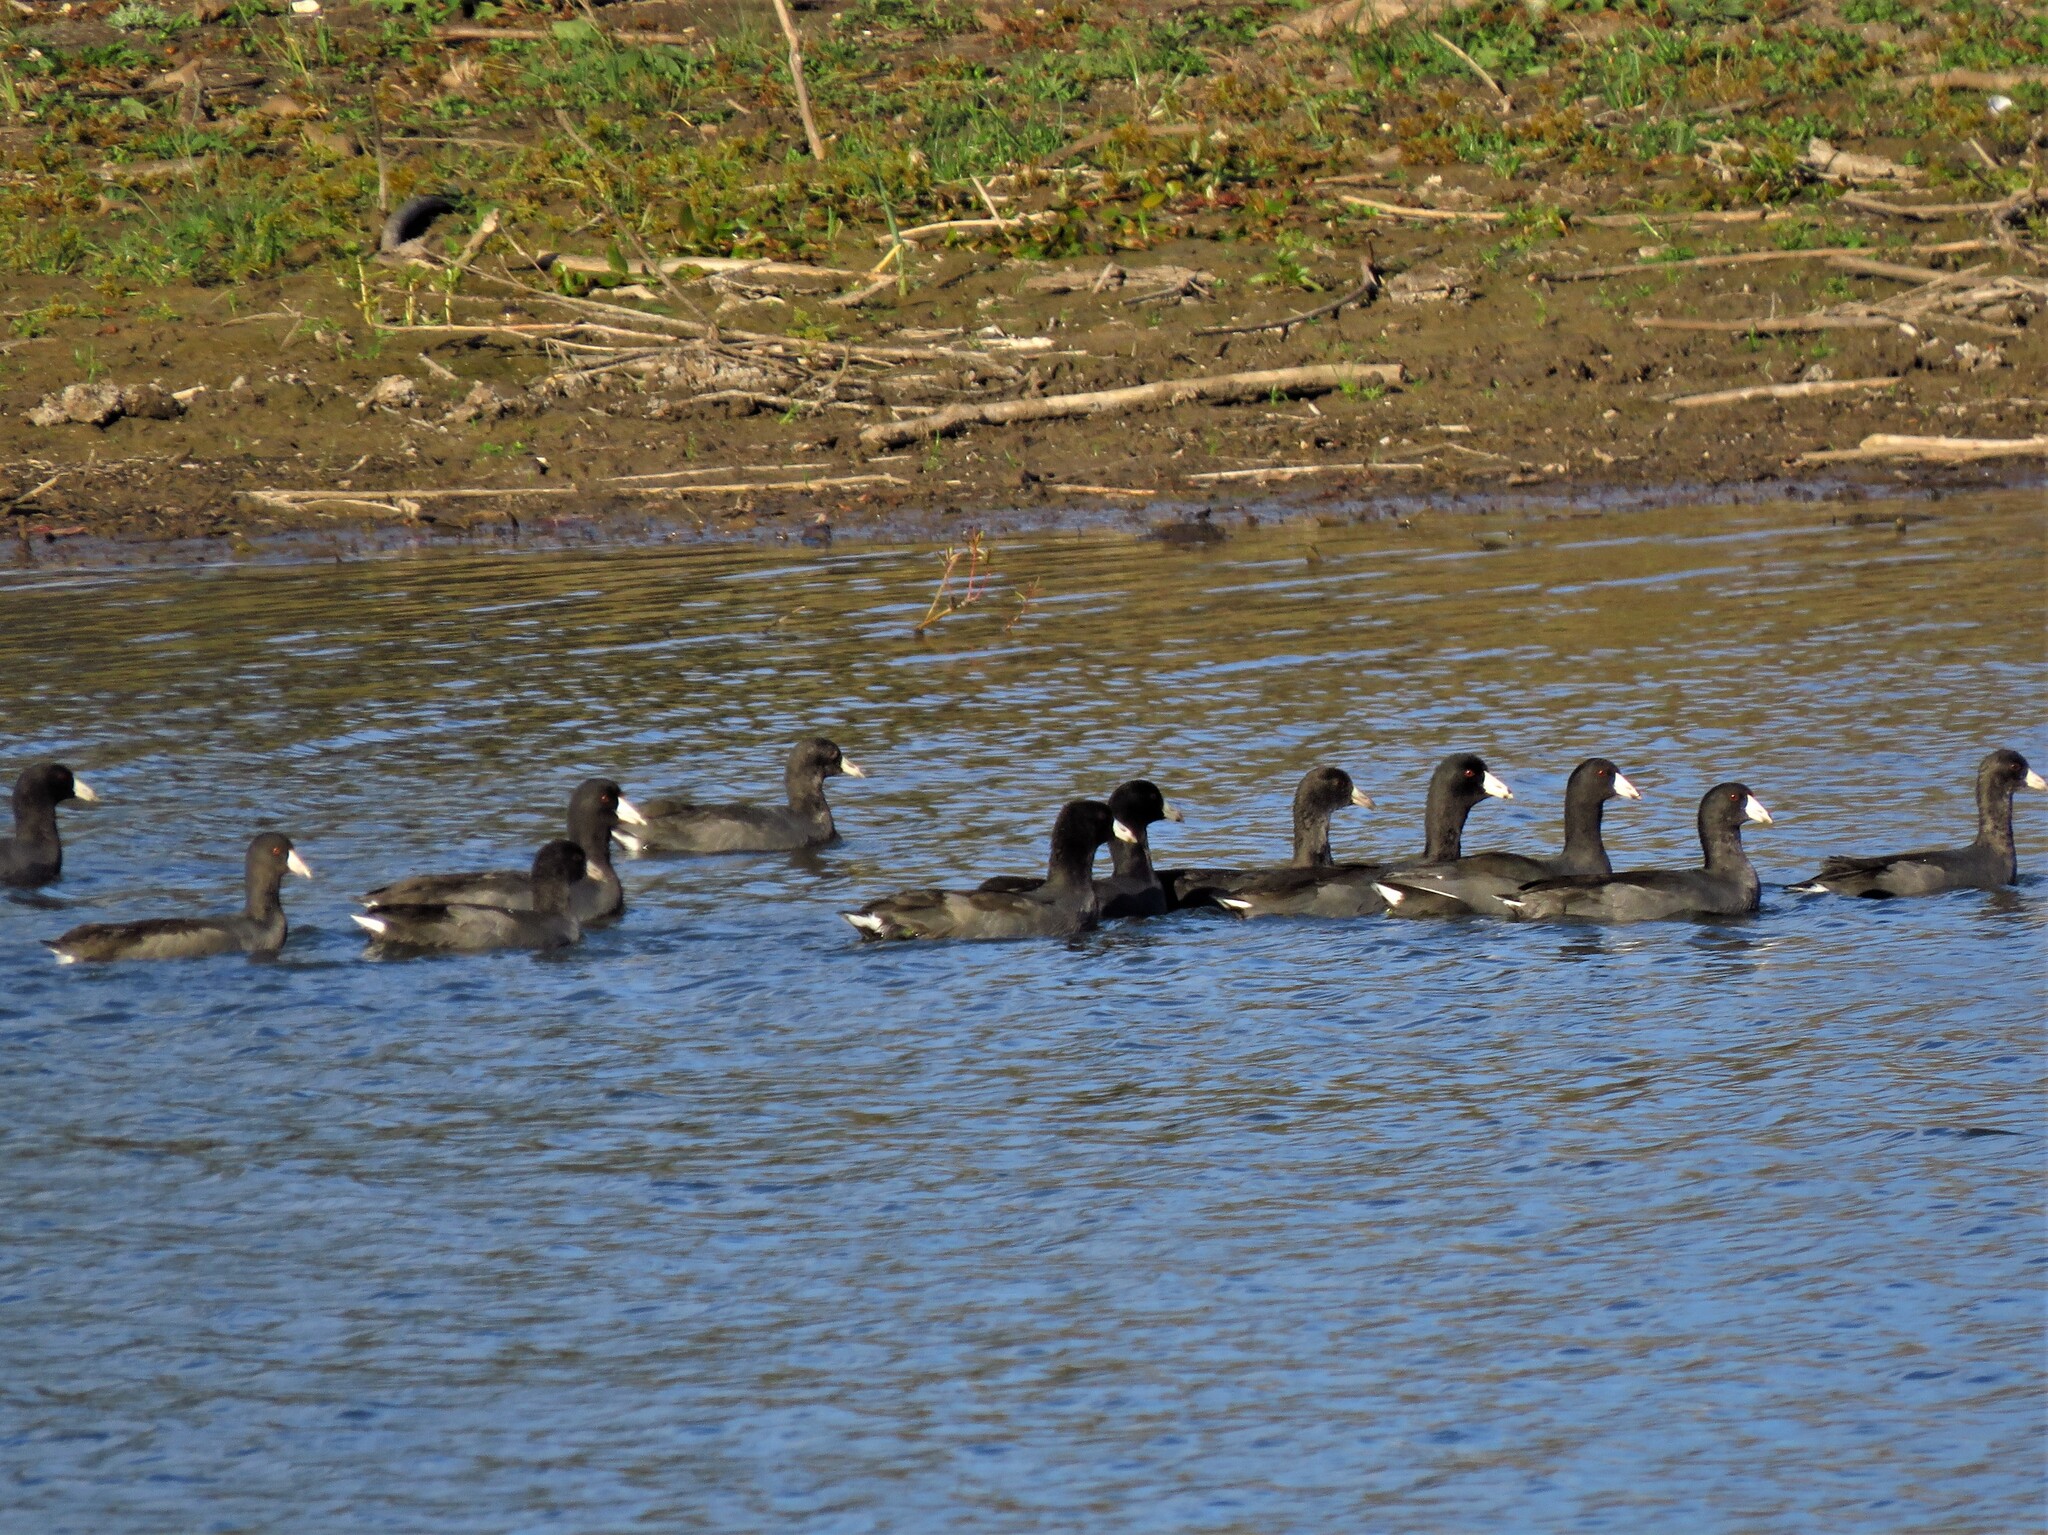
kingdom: Animalia
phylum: Chordata
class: Aves
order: Gruiformes
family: Rallidae
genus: Fulica
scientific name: Fulica americana
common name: American coot
